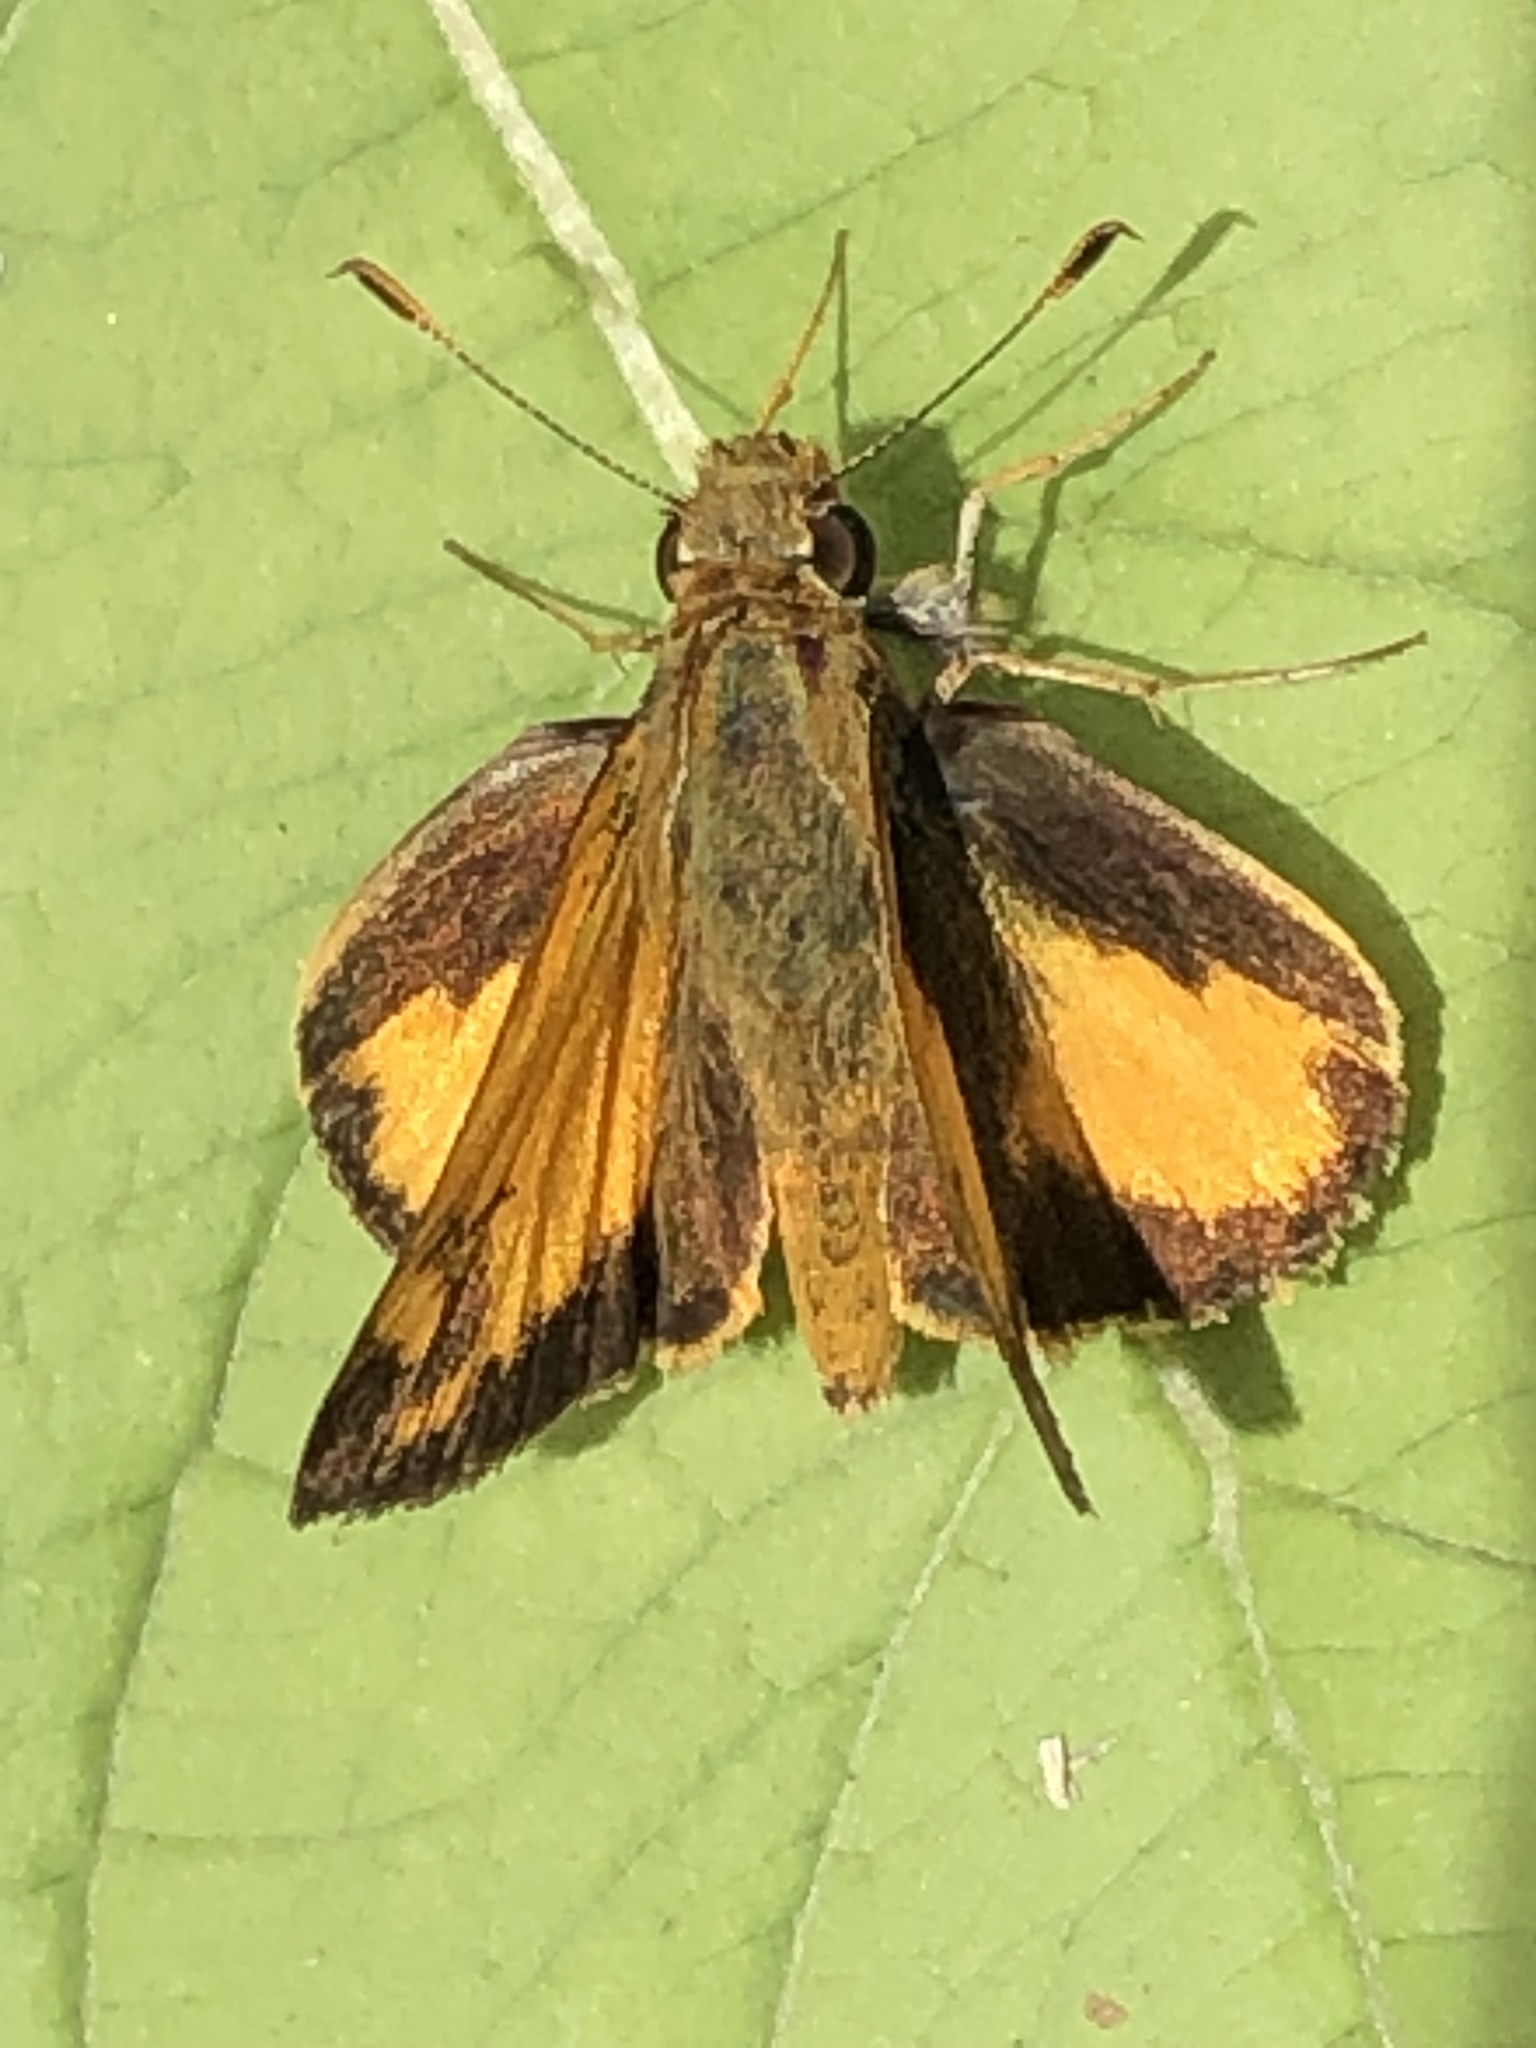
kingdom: Animalia
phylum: Arthropoda
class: Insecta
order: Lepidoptera
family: Hesperiidae
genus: Lon
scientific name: Lon zabulon
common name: Zabulon skipper
